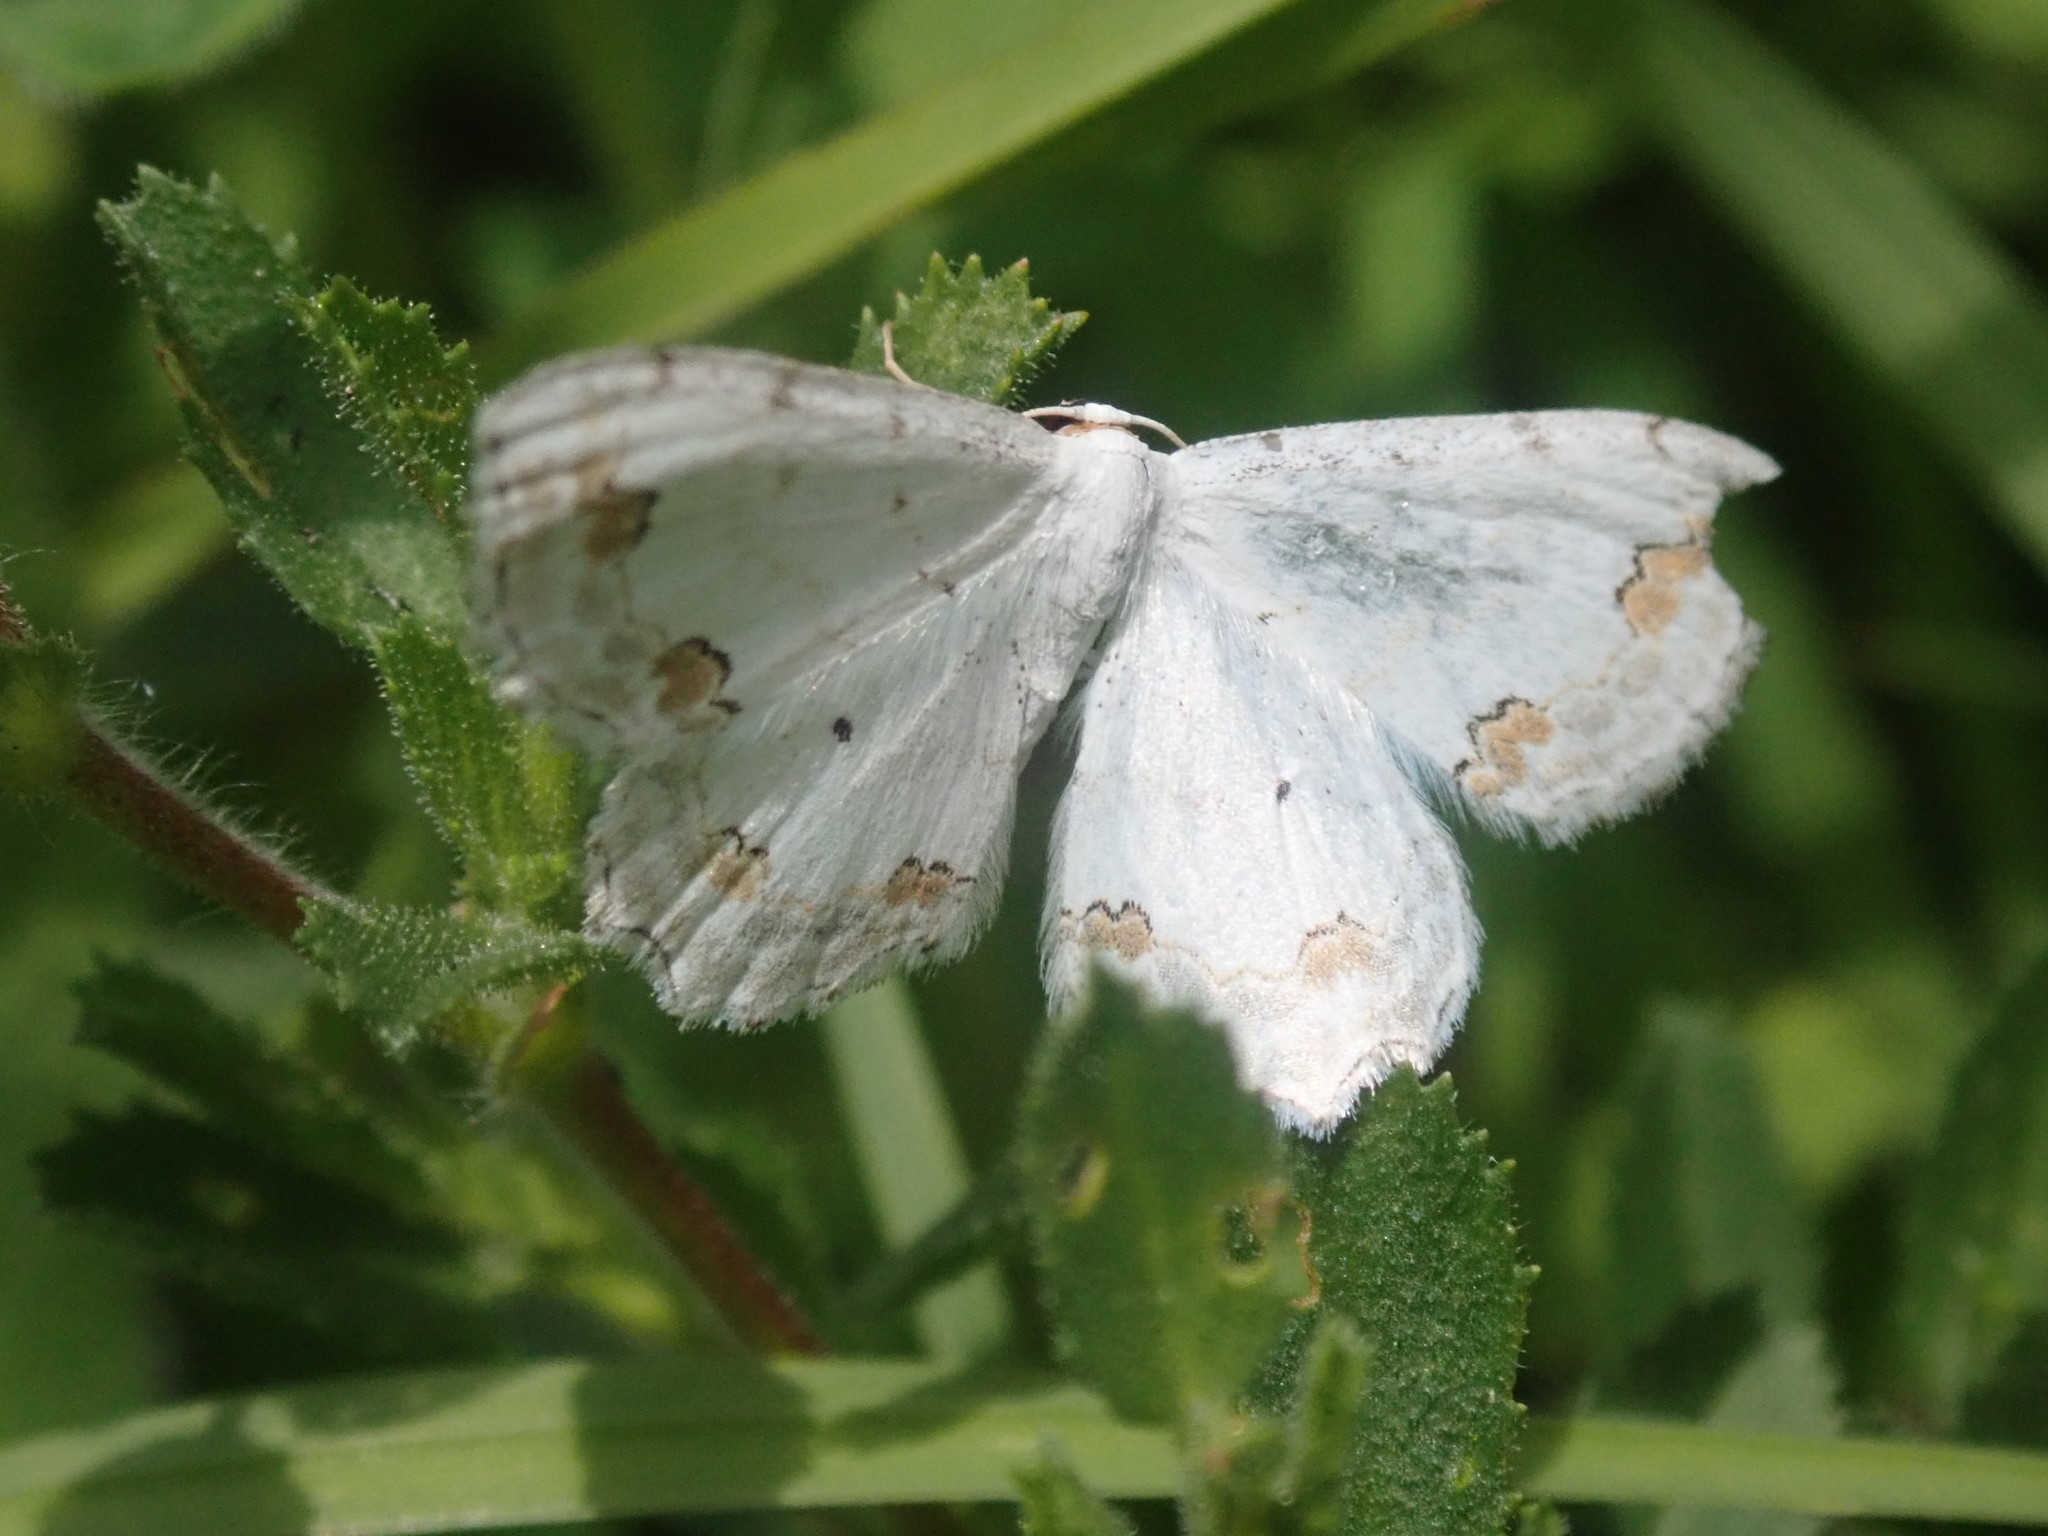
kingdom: Animalia
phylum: Arthropoda
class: Insecta
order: Lepidoptera
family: Geometridae
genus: Scopula
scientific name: Scopula ornata
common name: Lace border
